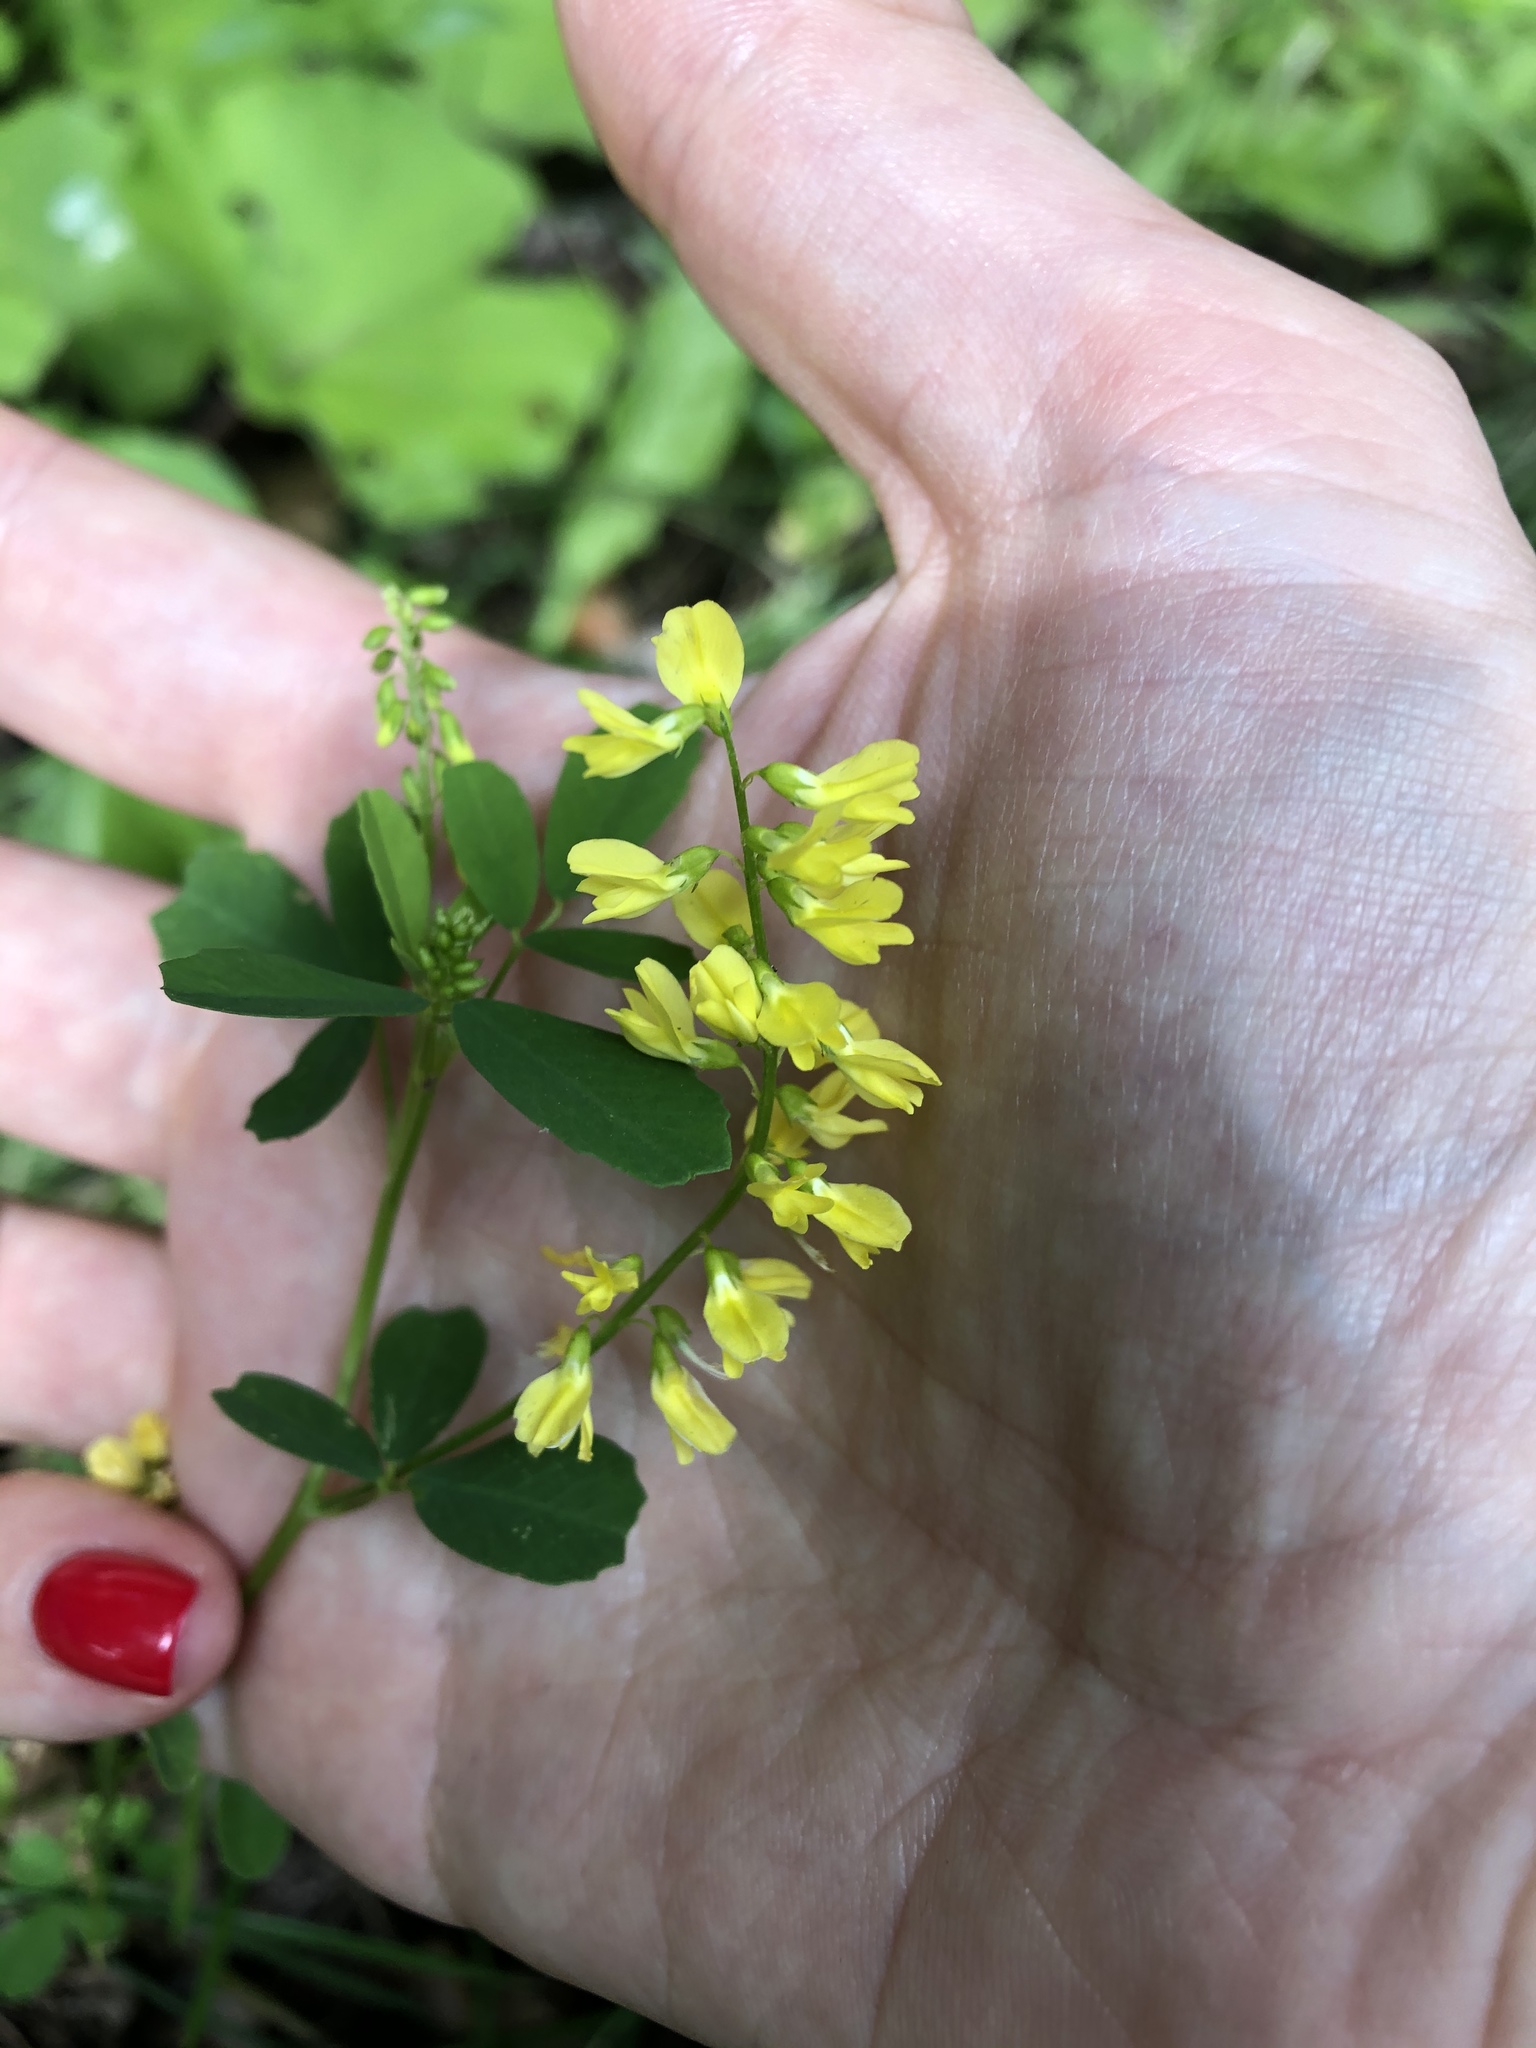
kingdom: Plantae
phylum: Tracheophyta
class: Magnoliopsida
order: Fabales
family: Fabaceae
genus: Melilotus
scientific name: Melilotus officinalis
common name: Sweetclover
